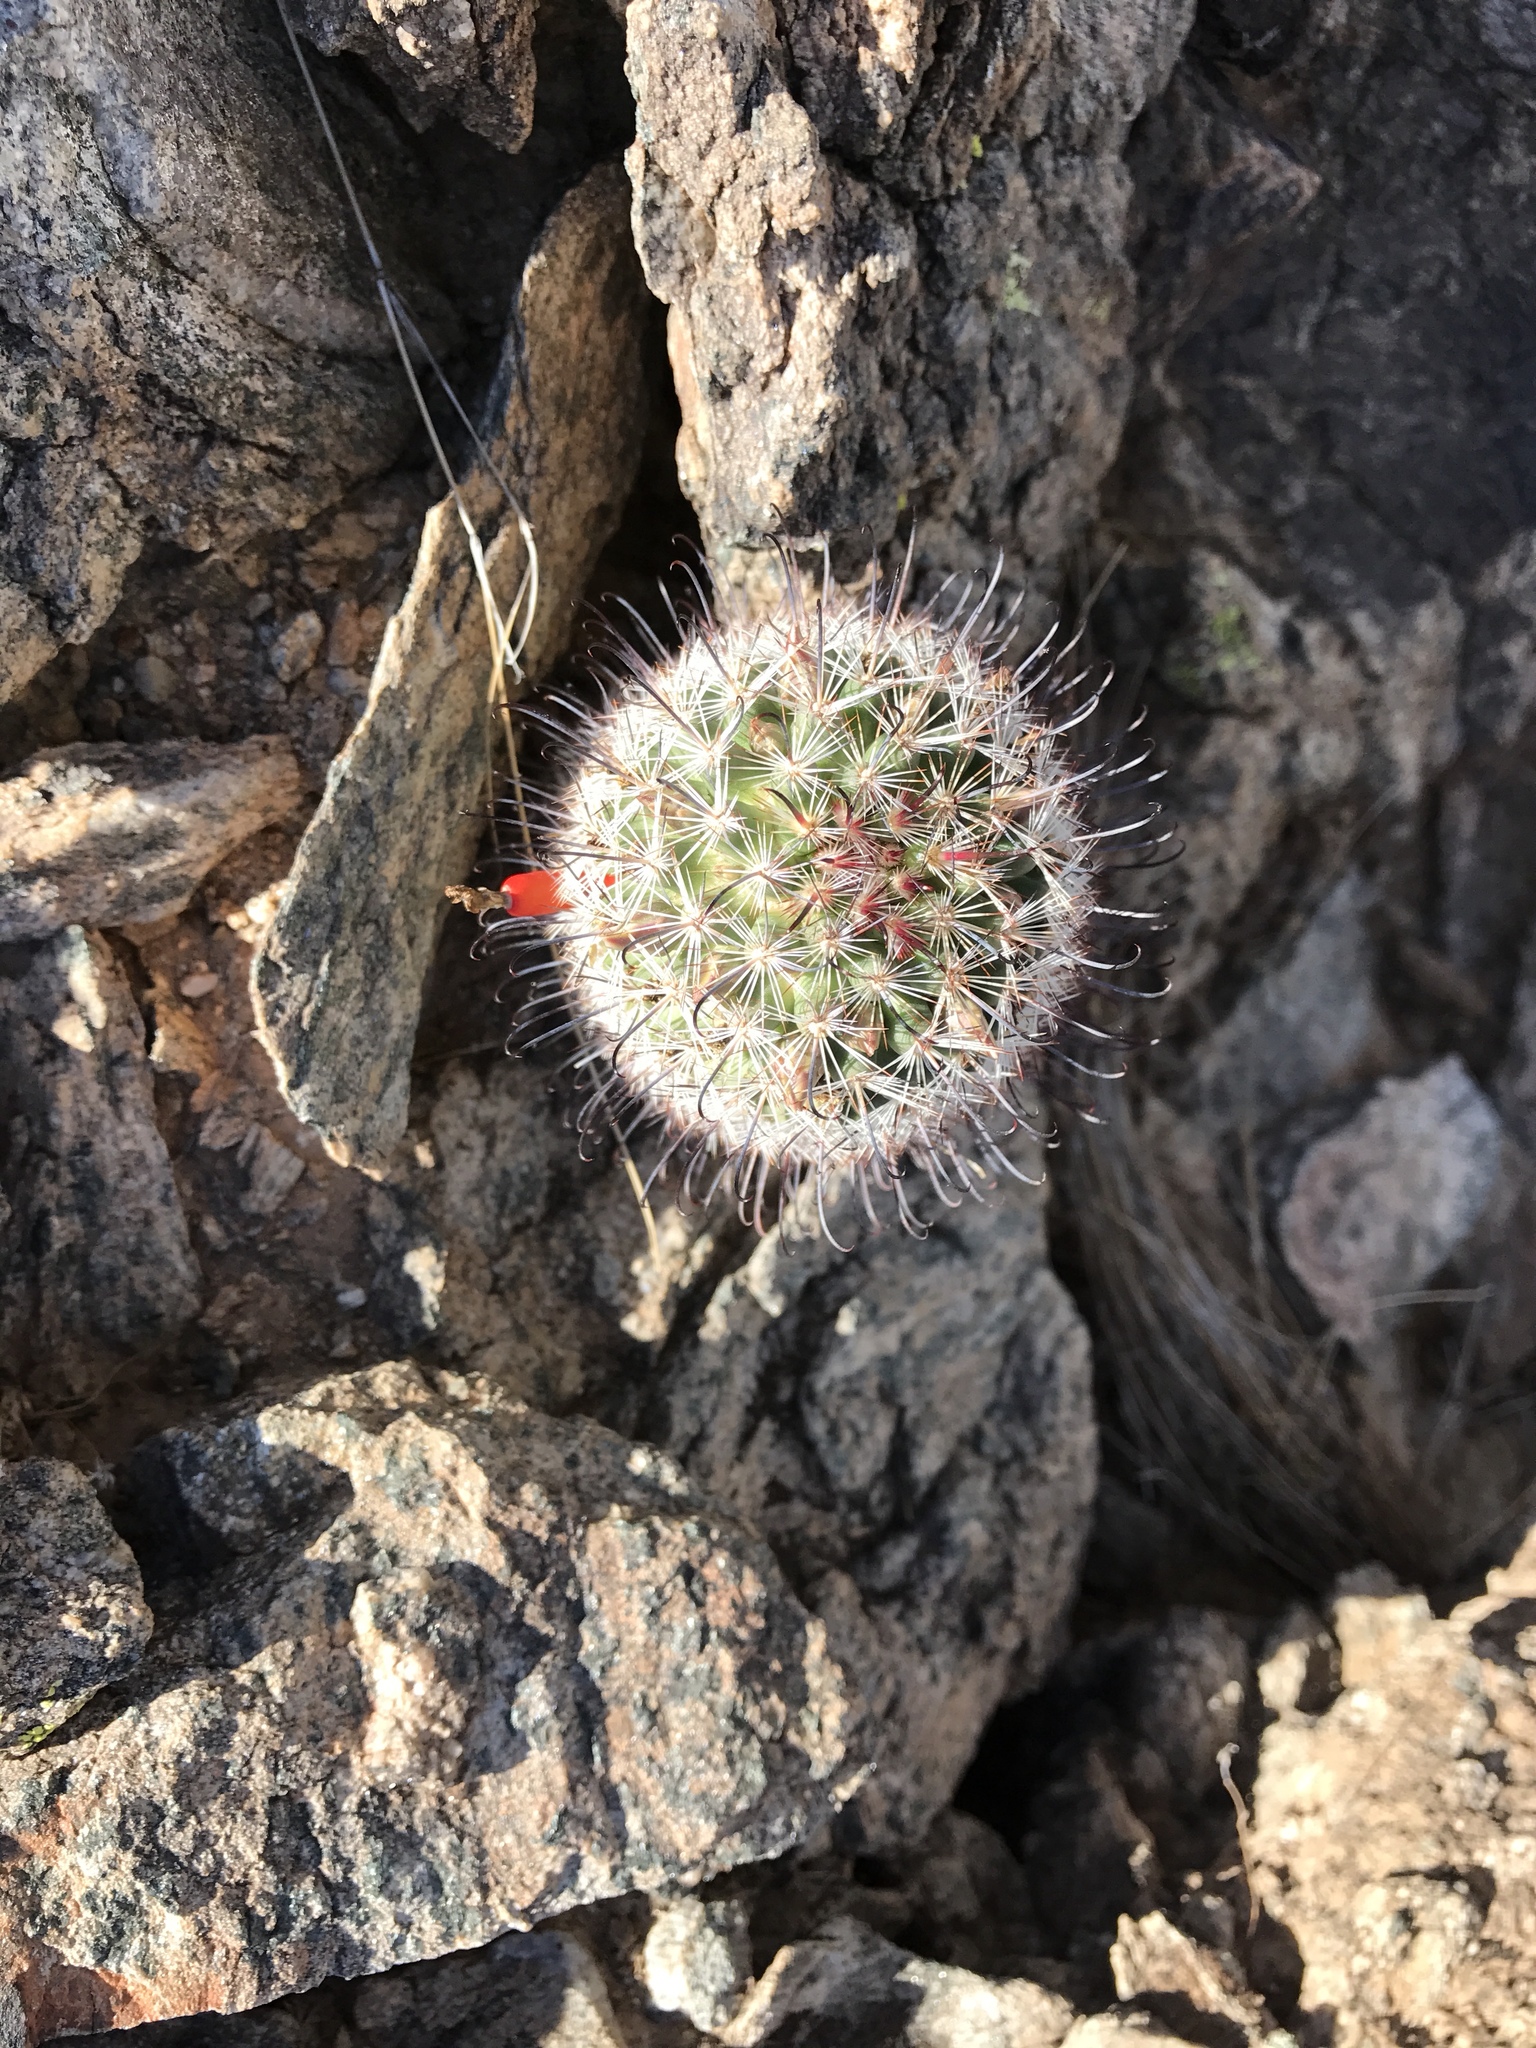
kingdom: Plantae
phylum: Tracheophyta
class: Magnoliopsida
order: Caryophyllales
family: Cactaceae
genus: Cochemiea
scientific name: Cochemiea grahamii
